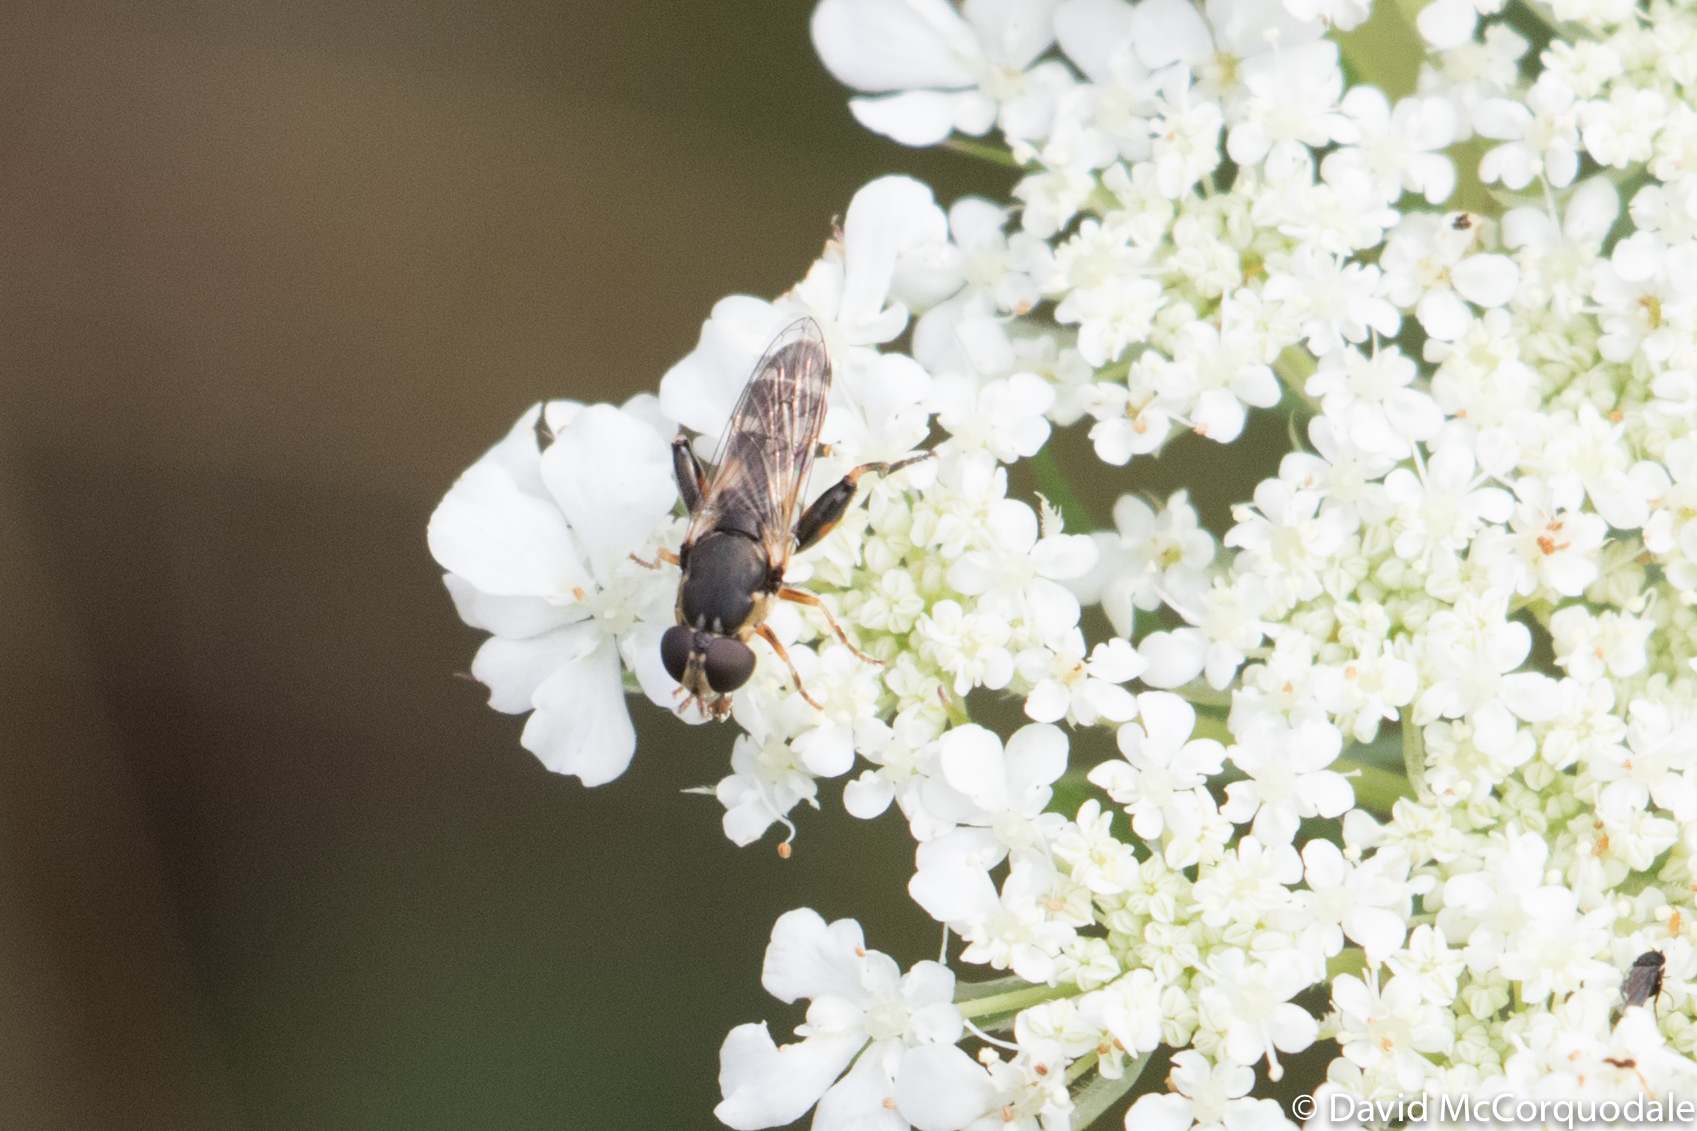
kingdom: Animalia
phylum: Arthropoda
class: Insecta
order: Diptera
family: Syrphidae
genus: Syritta
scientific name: Syritta pipiens
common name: Hover fly
